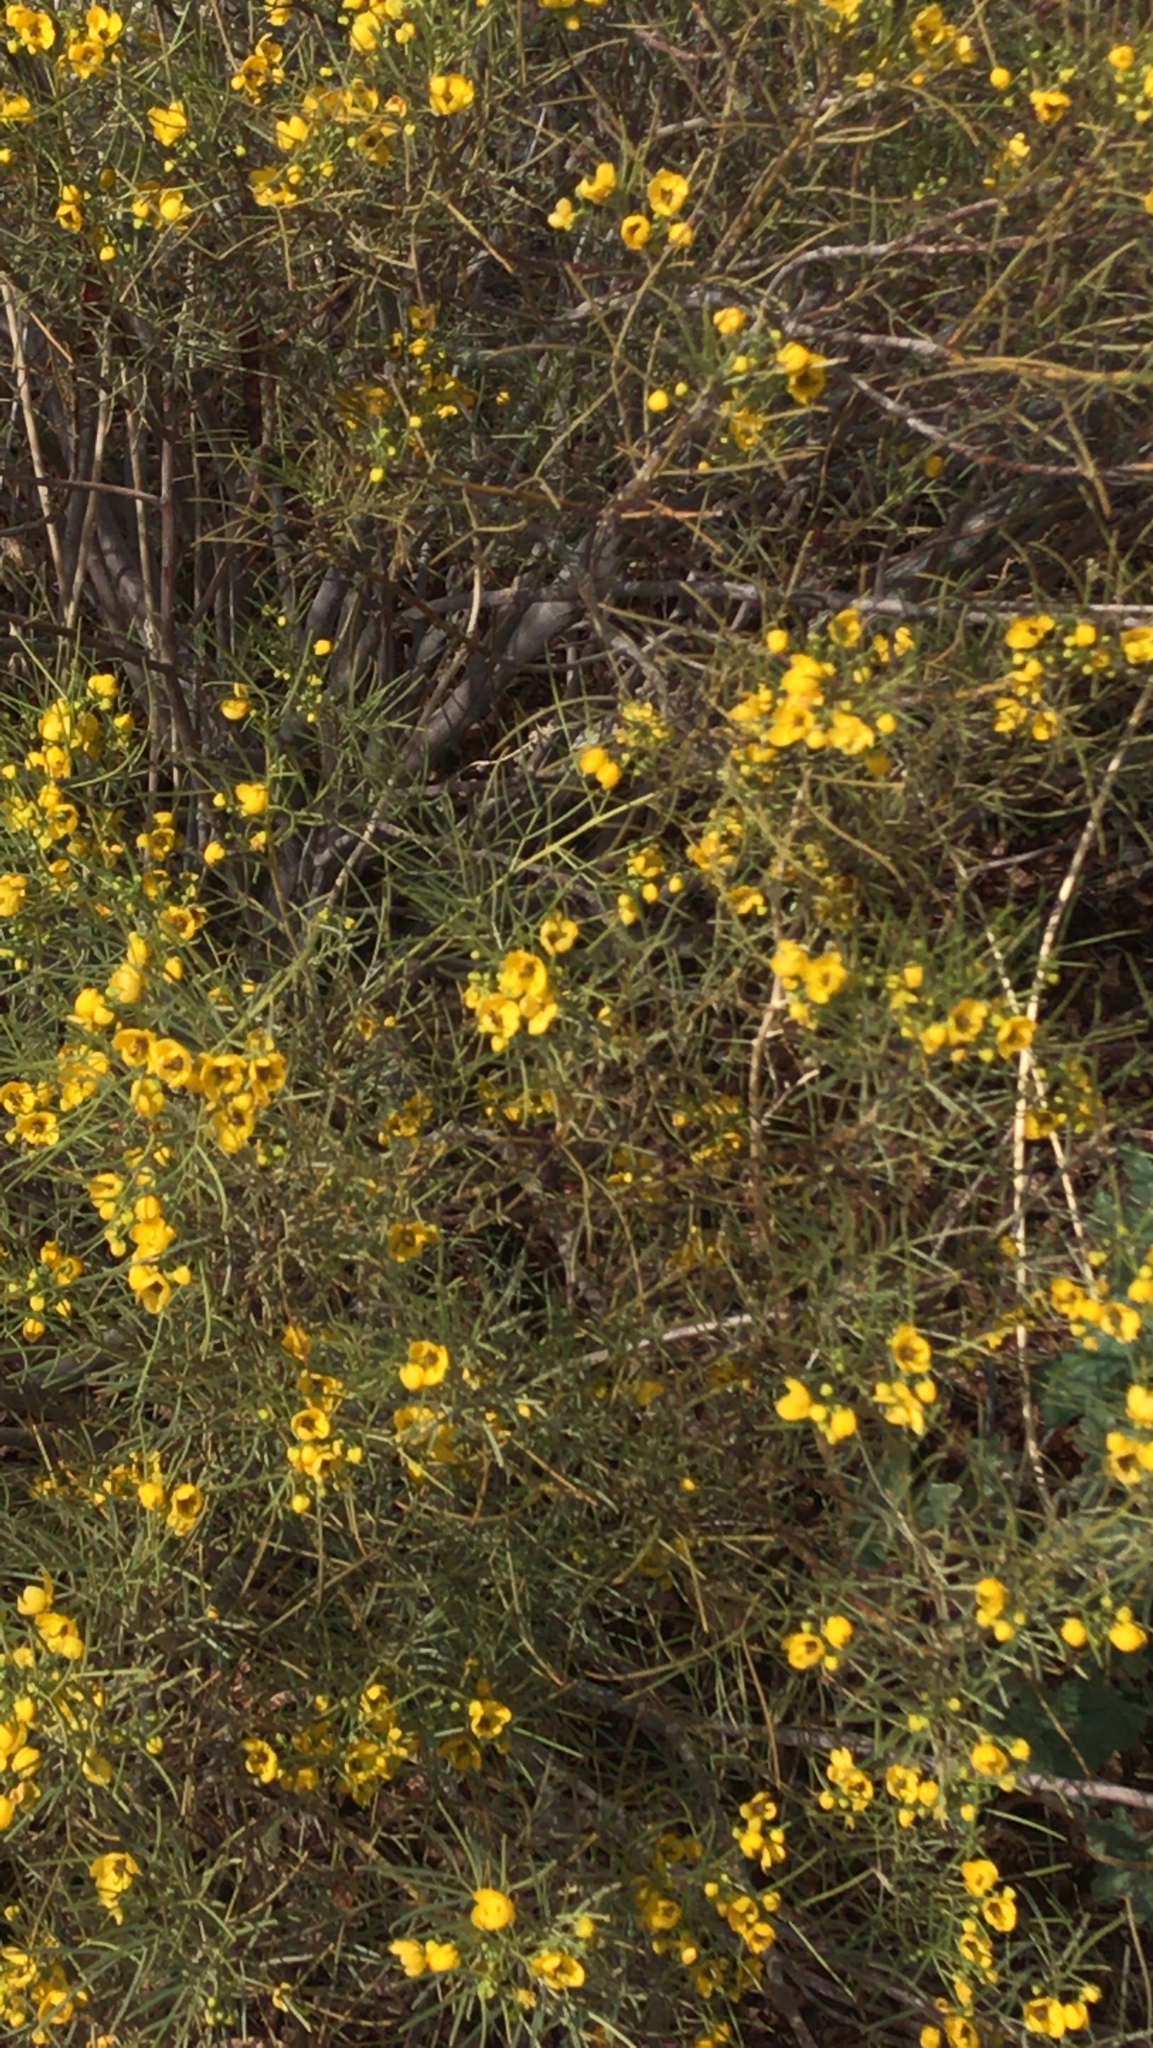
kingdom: Plantae
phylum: Tracheophyta
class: Magnoliopsida
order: Fabales
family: Fabaceae
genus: Senna
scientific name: Senna artemisioides
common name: Burnt-leaved acacia
